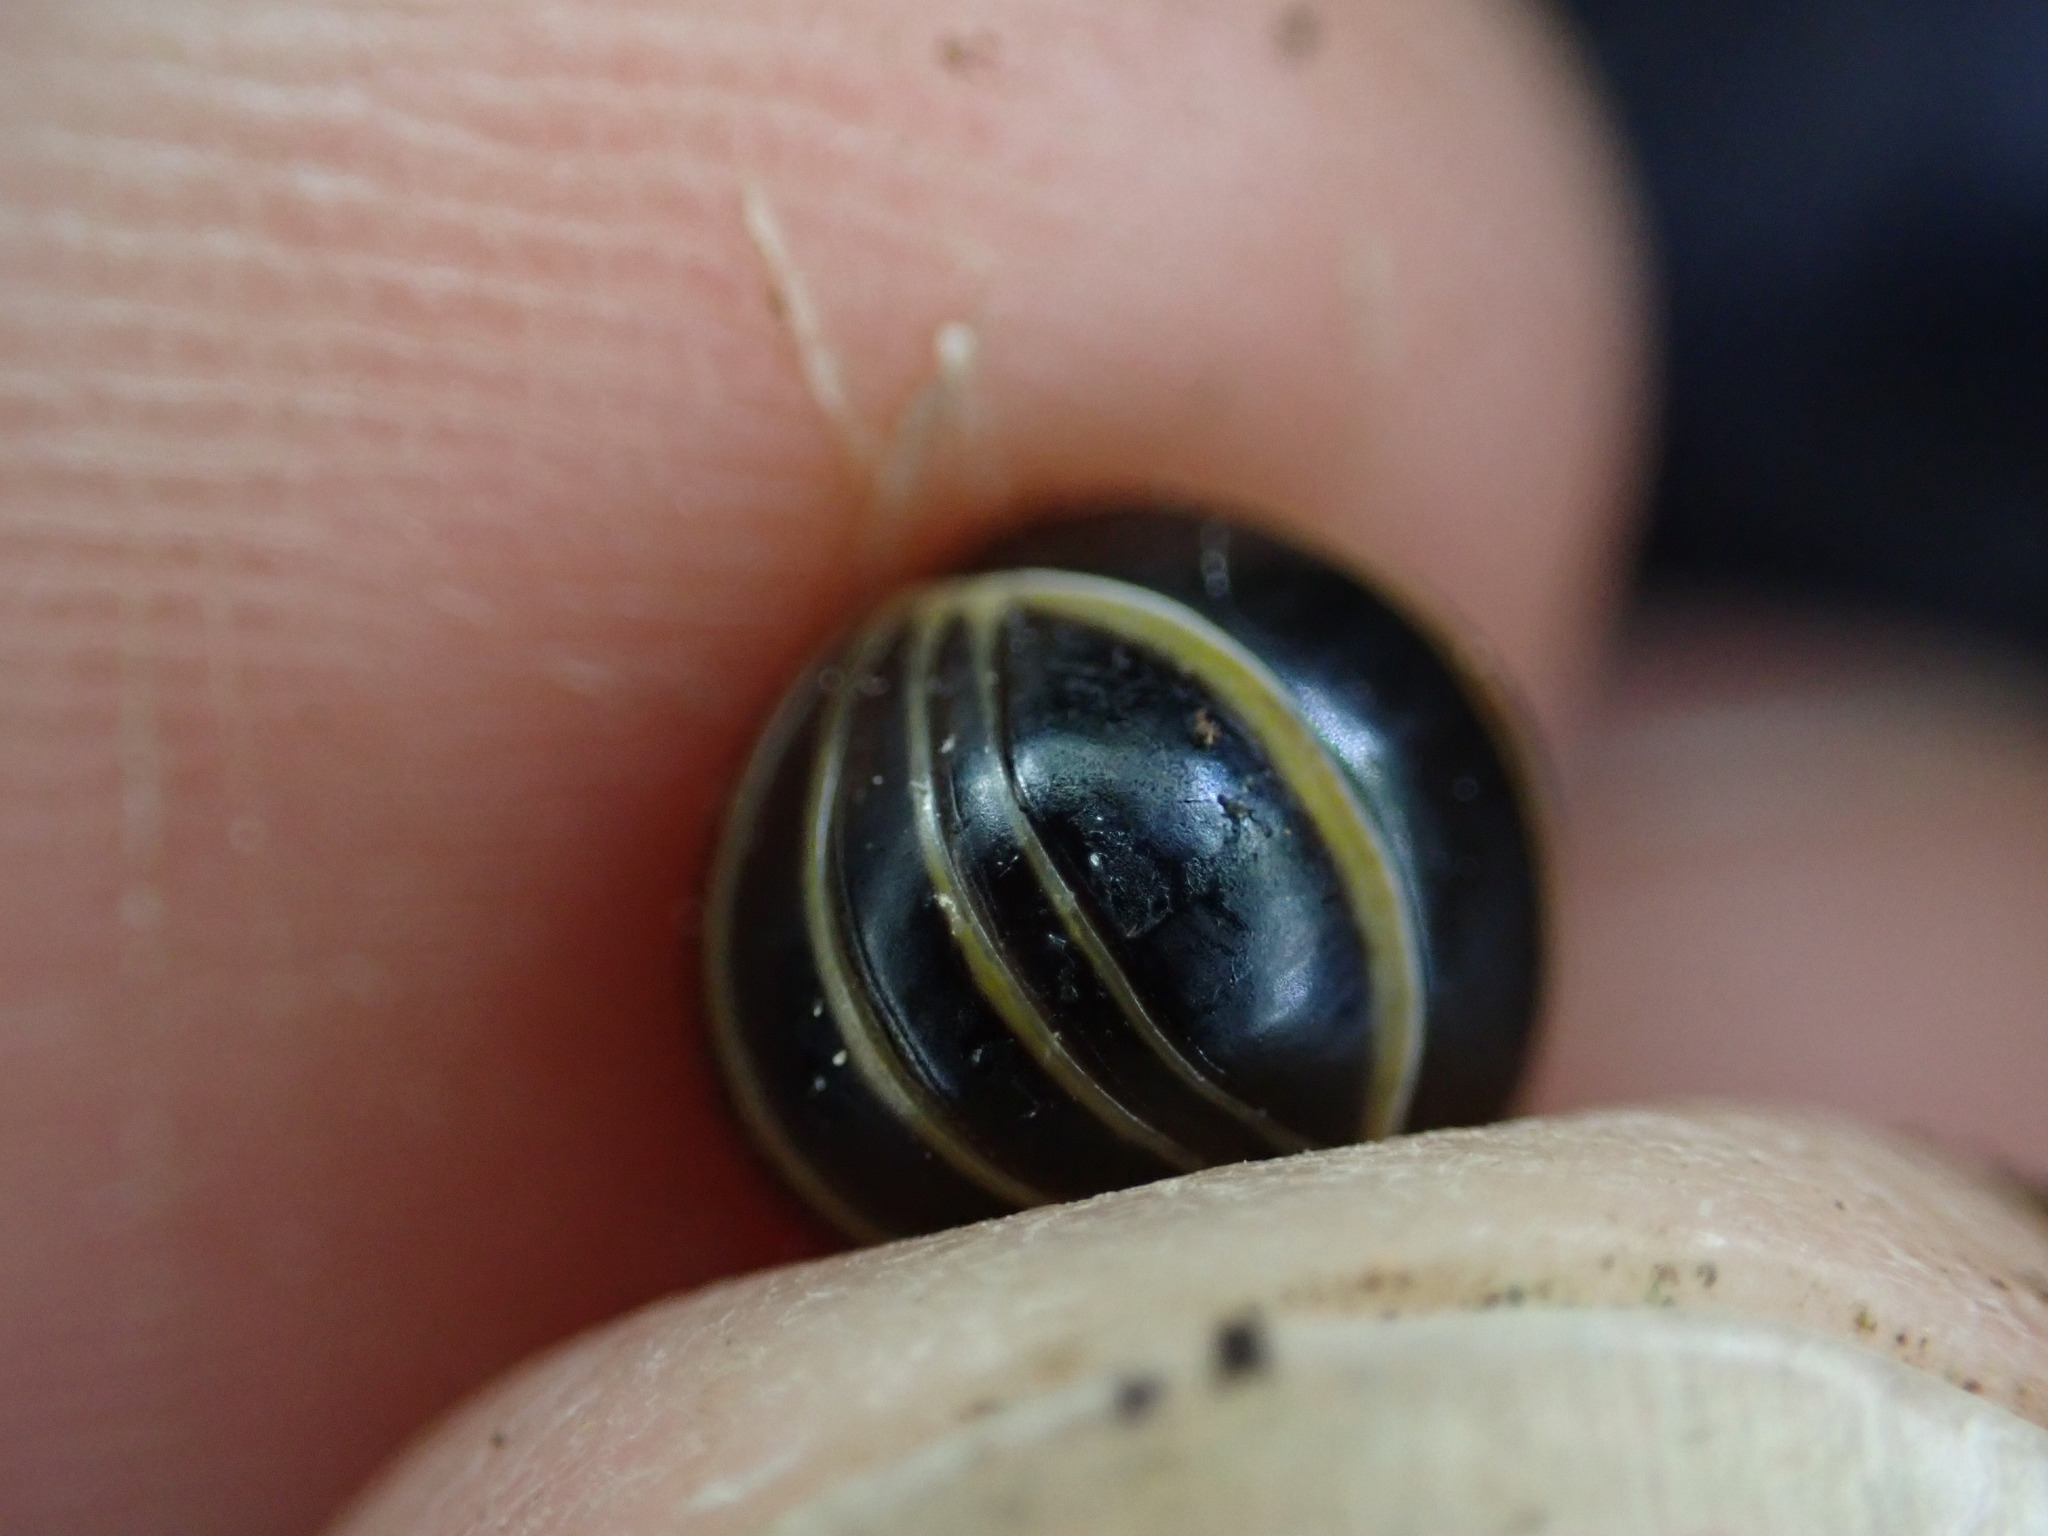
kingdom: Animalia
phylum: Arthropoda
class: Diplopoda
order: Glomerida
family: Glomeridae
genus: Glomeris
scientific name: Glomeris marginata
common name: Bordered pill millipede
